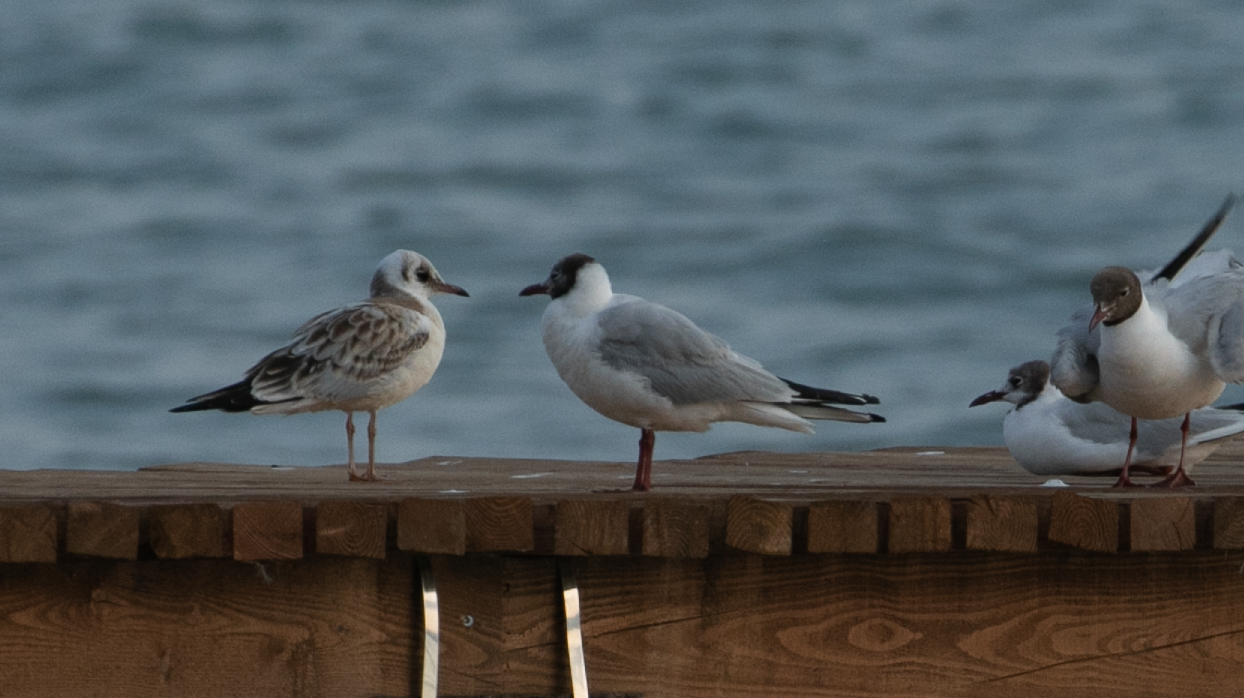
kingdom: Animalia
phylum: Chordata
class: Aves
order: Charadriiformes
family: Laridae
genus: Chroicocephalus
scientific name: Chroicocephalus ridibundus
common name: Black-headed gull
